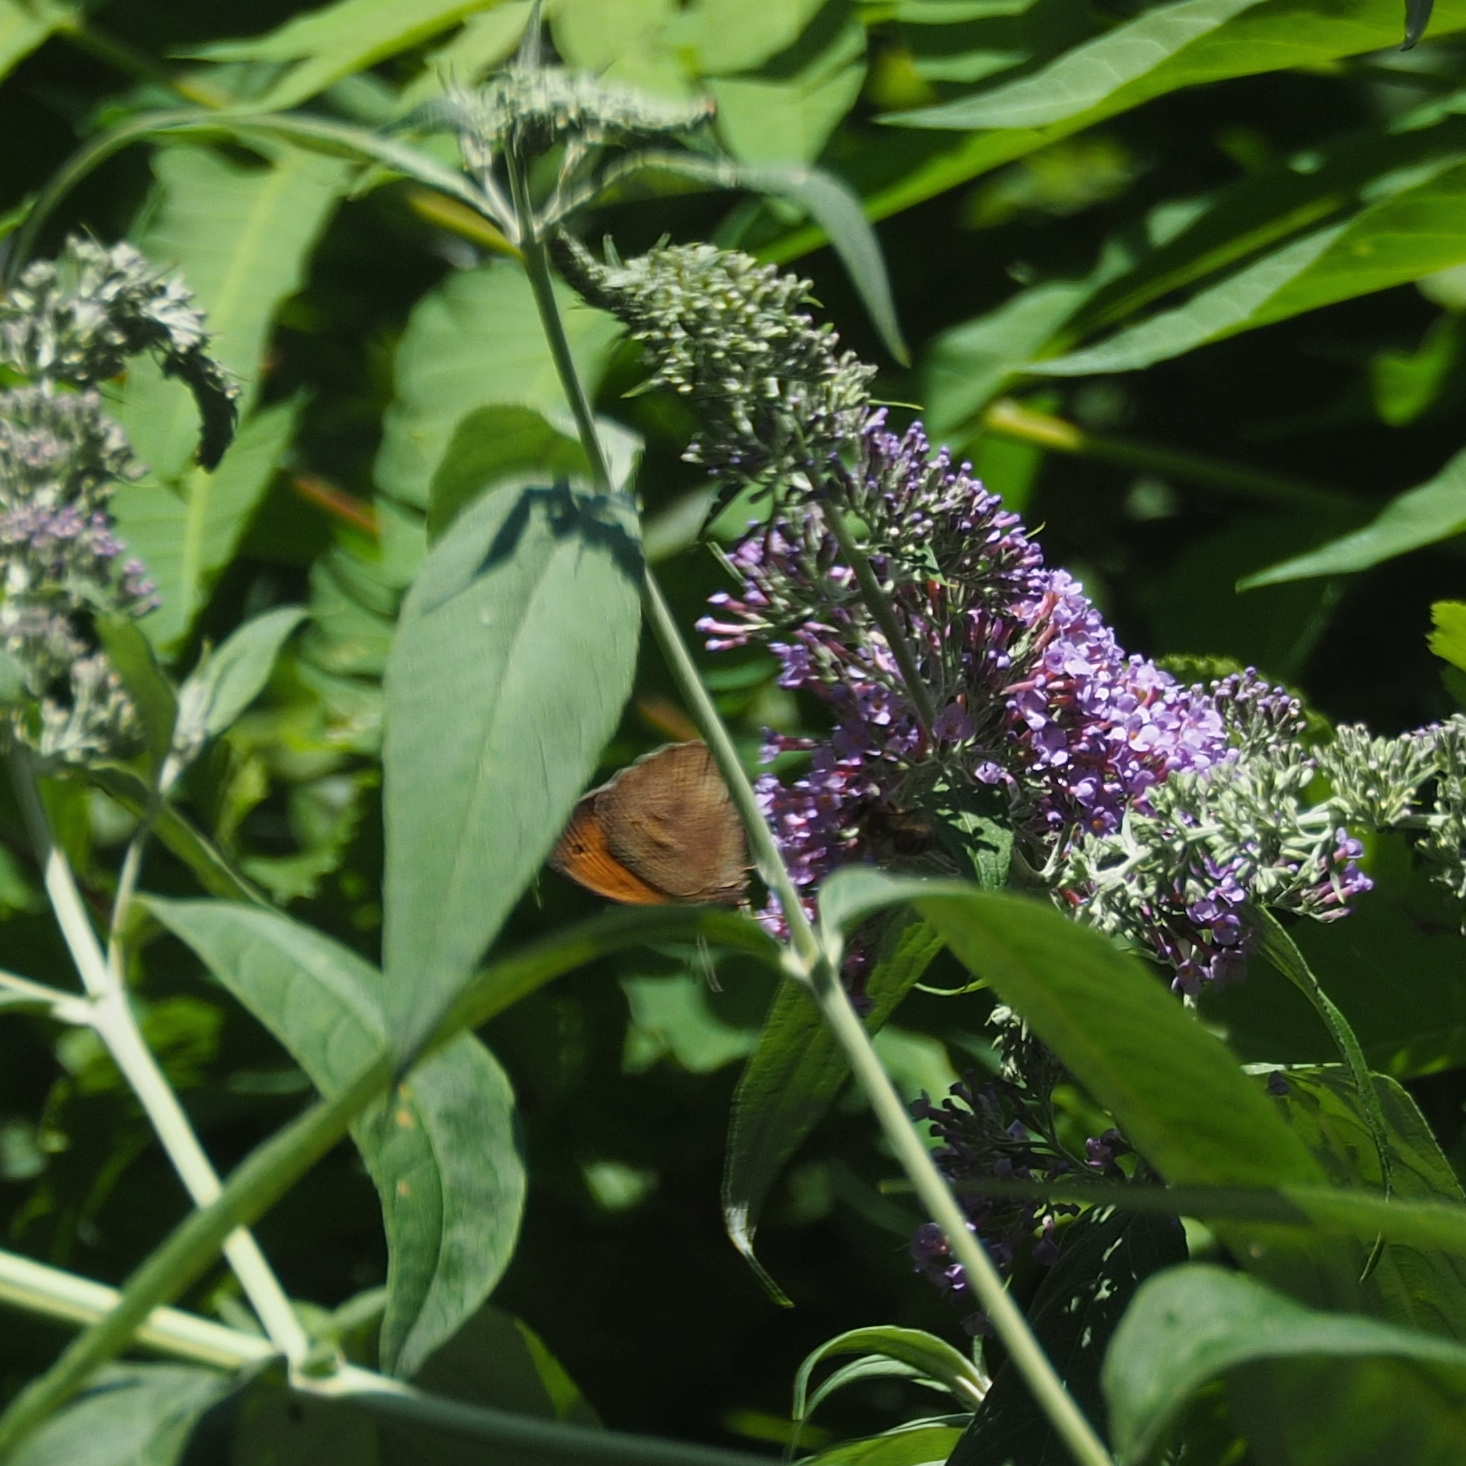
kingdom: Animalia
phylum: Arthropoda
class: Insecta
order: Lepidoptera
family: Nymphalidae
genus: Maniola
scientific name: Maniola jurtina
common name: Meadow brown
